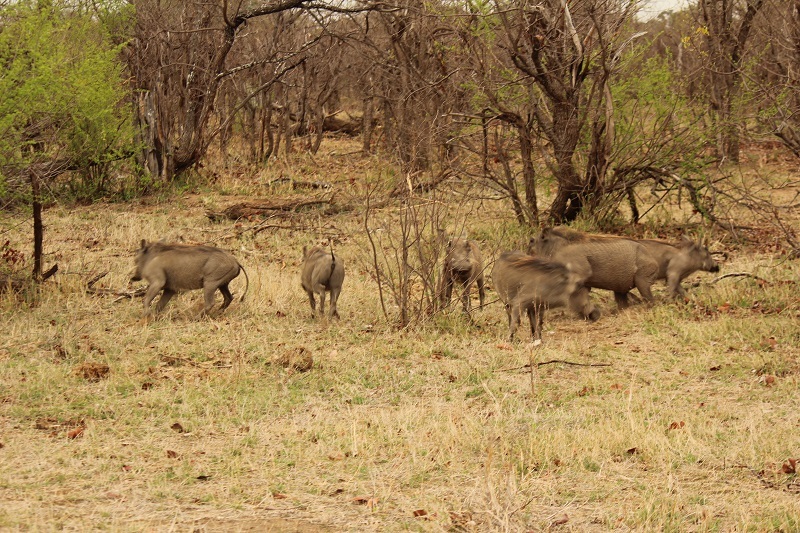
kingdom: Animalia
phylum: Chordata
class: Mammalia
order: Artiodactyla
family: Suidae
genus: Phacochoerus
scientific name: Phacochoerus africanus
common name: Common warthog
